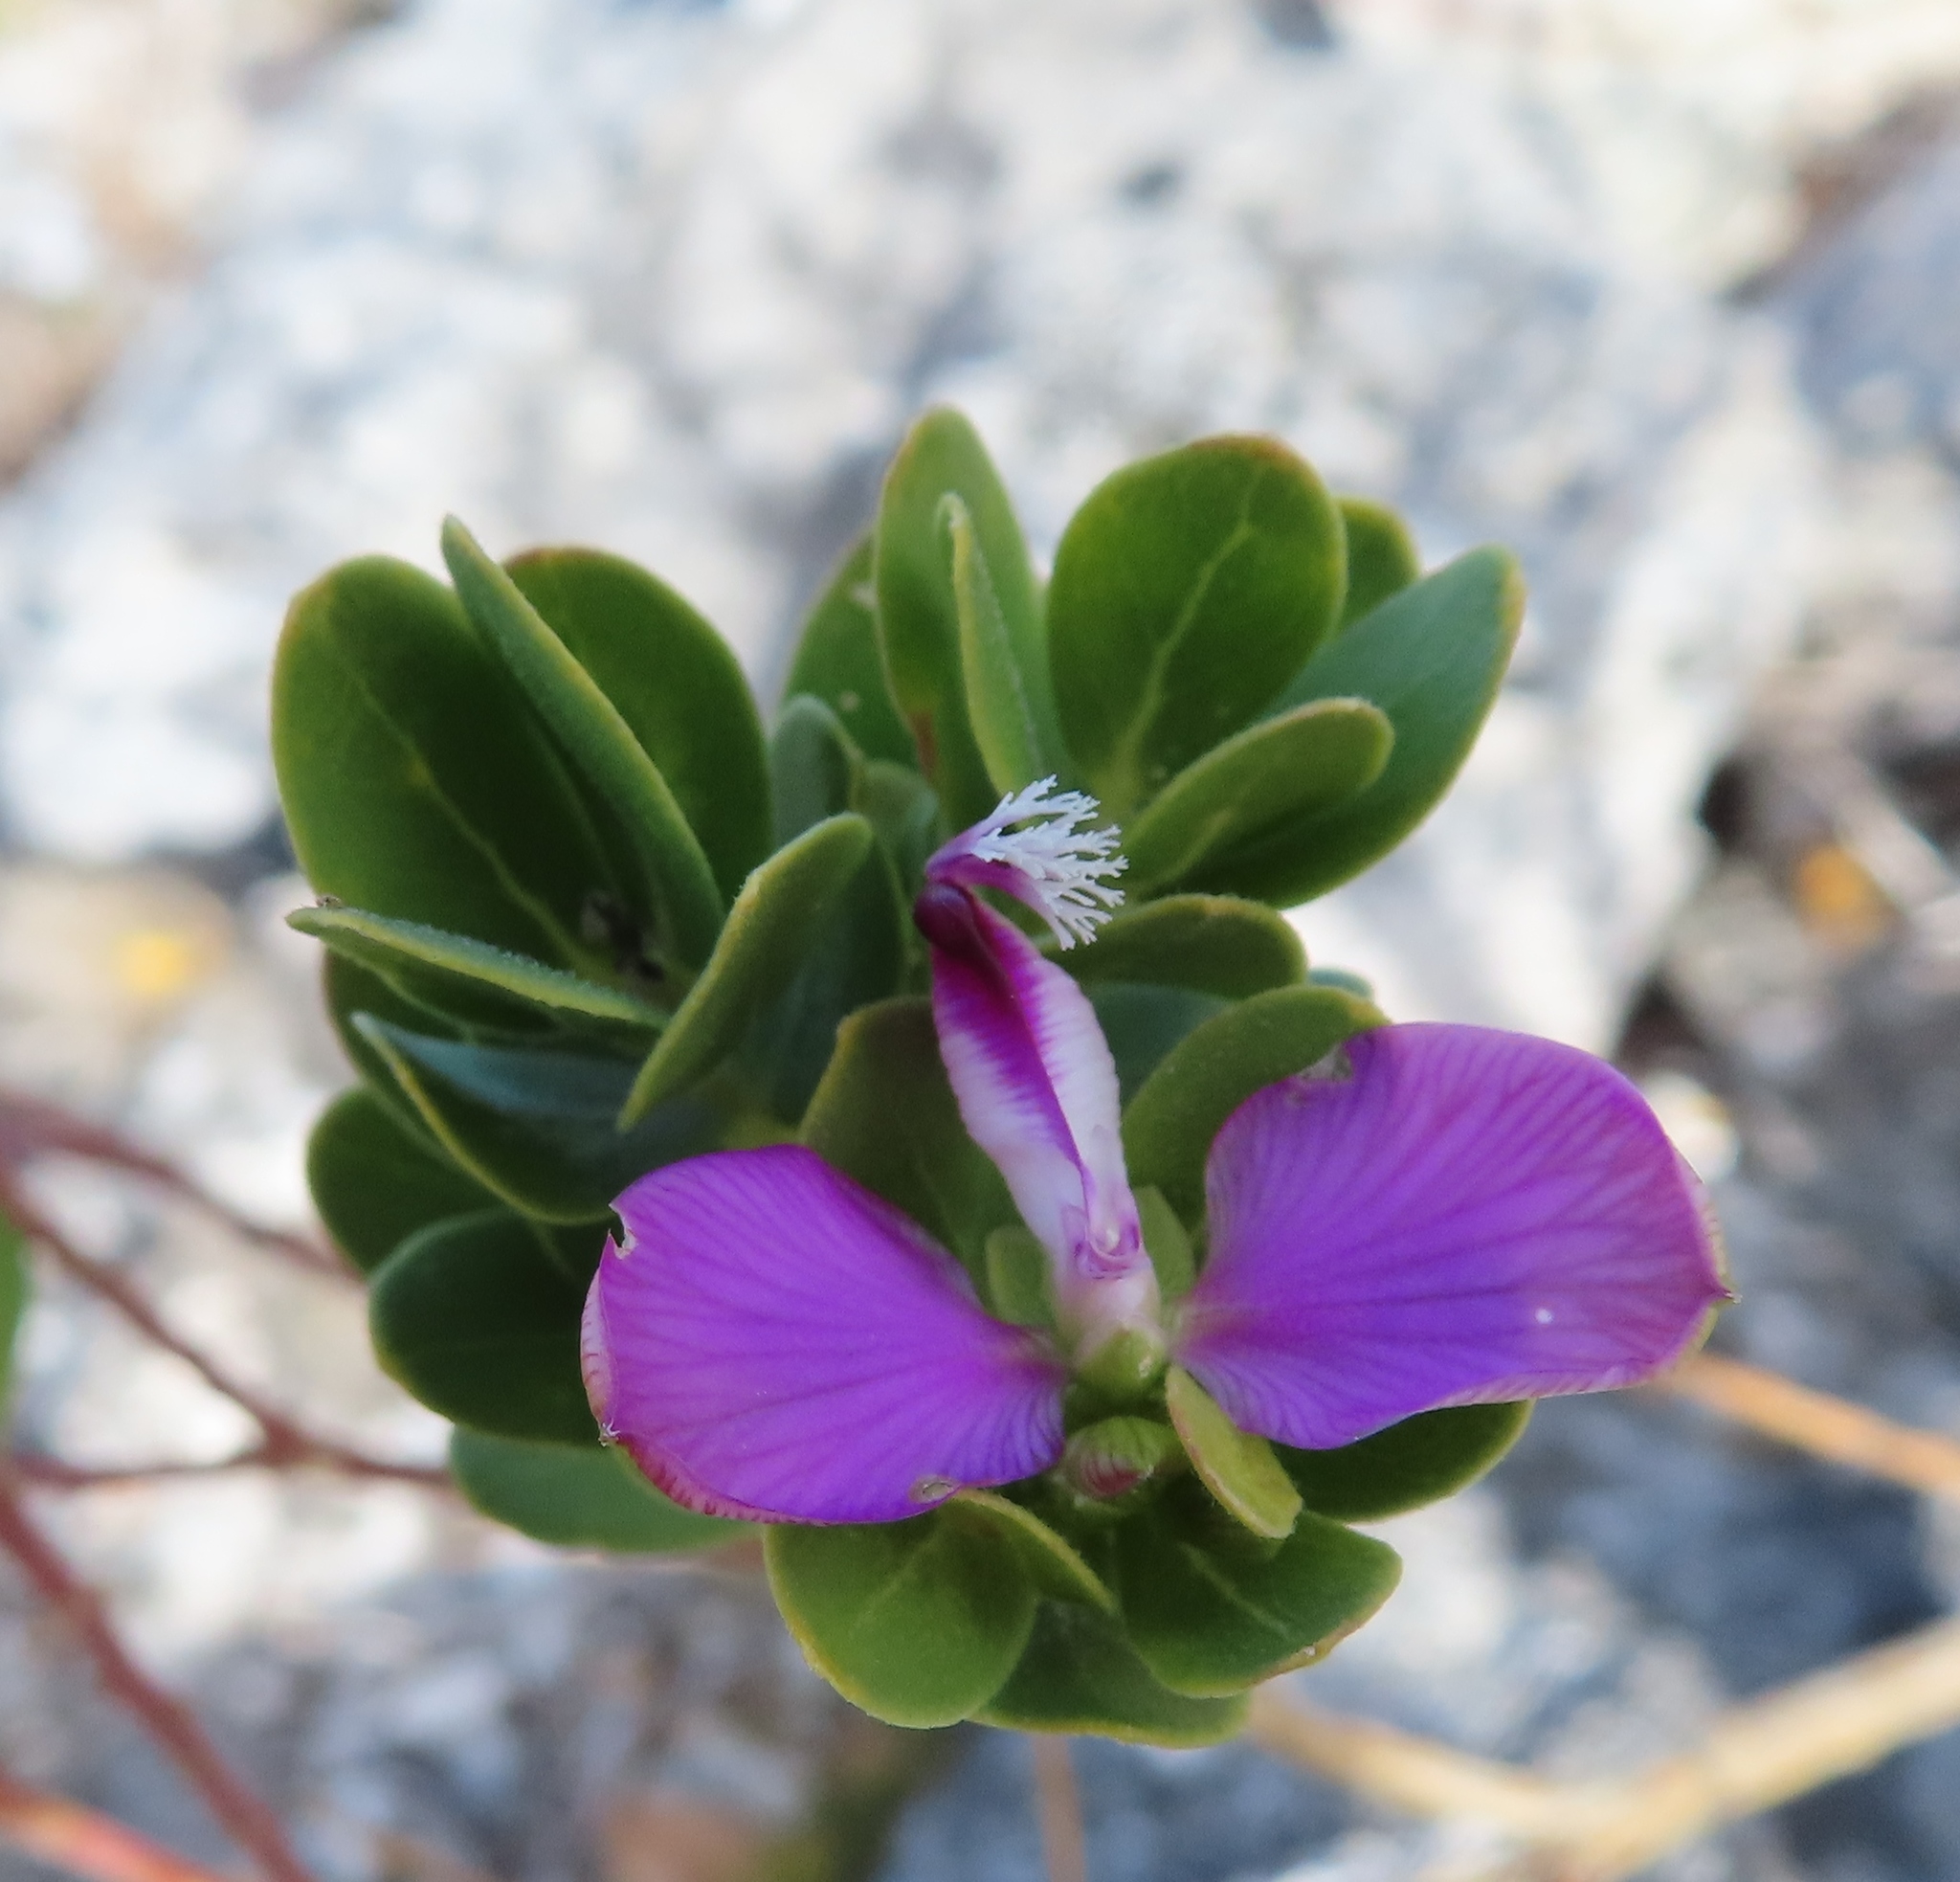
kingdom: Plantae
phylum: Tracheophyta
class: Magnoliopsida
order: Fabales
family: Polygalaceae
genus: Polygala
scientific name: Polygala myrtifolia
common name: Myrtle-leaf milkwort
